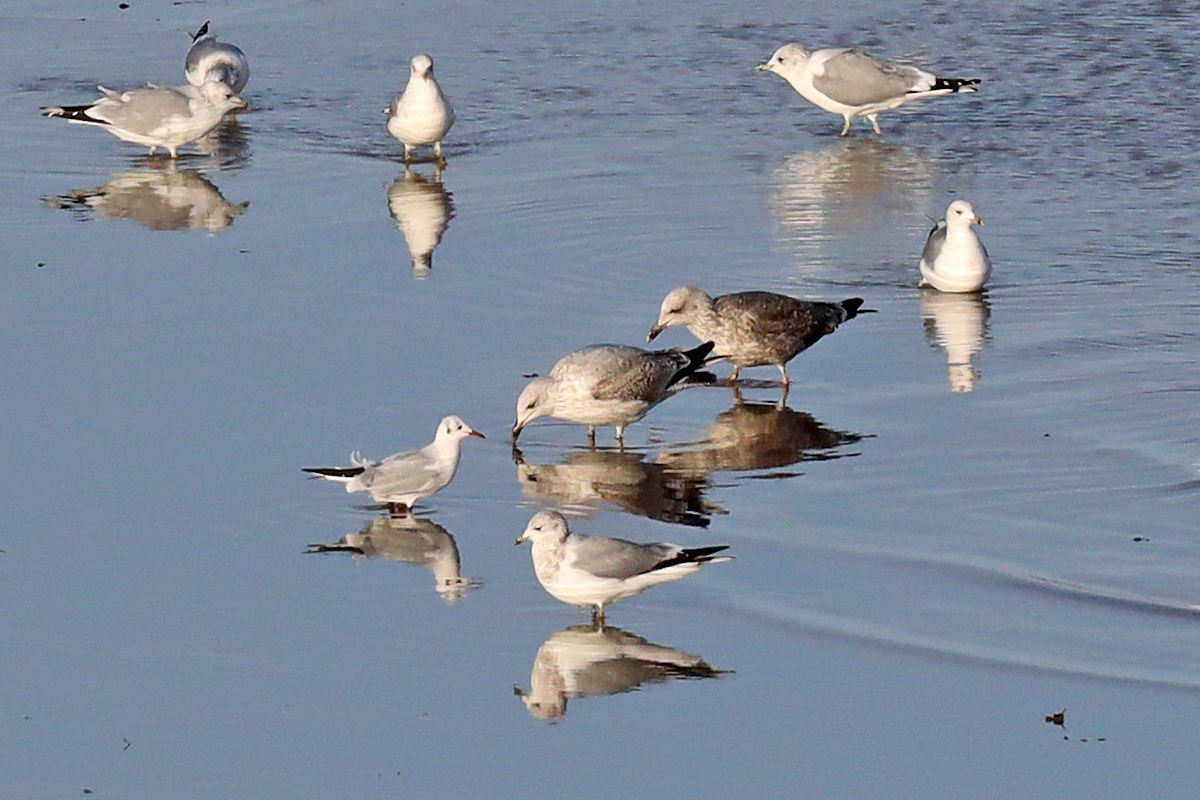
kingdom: Animalia
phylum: Chordata
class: Aves
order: Charadriiformes
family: Laridae
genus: Larus
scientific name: Larus canus
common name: Mew gull
